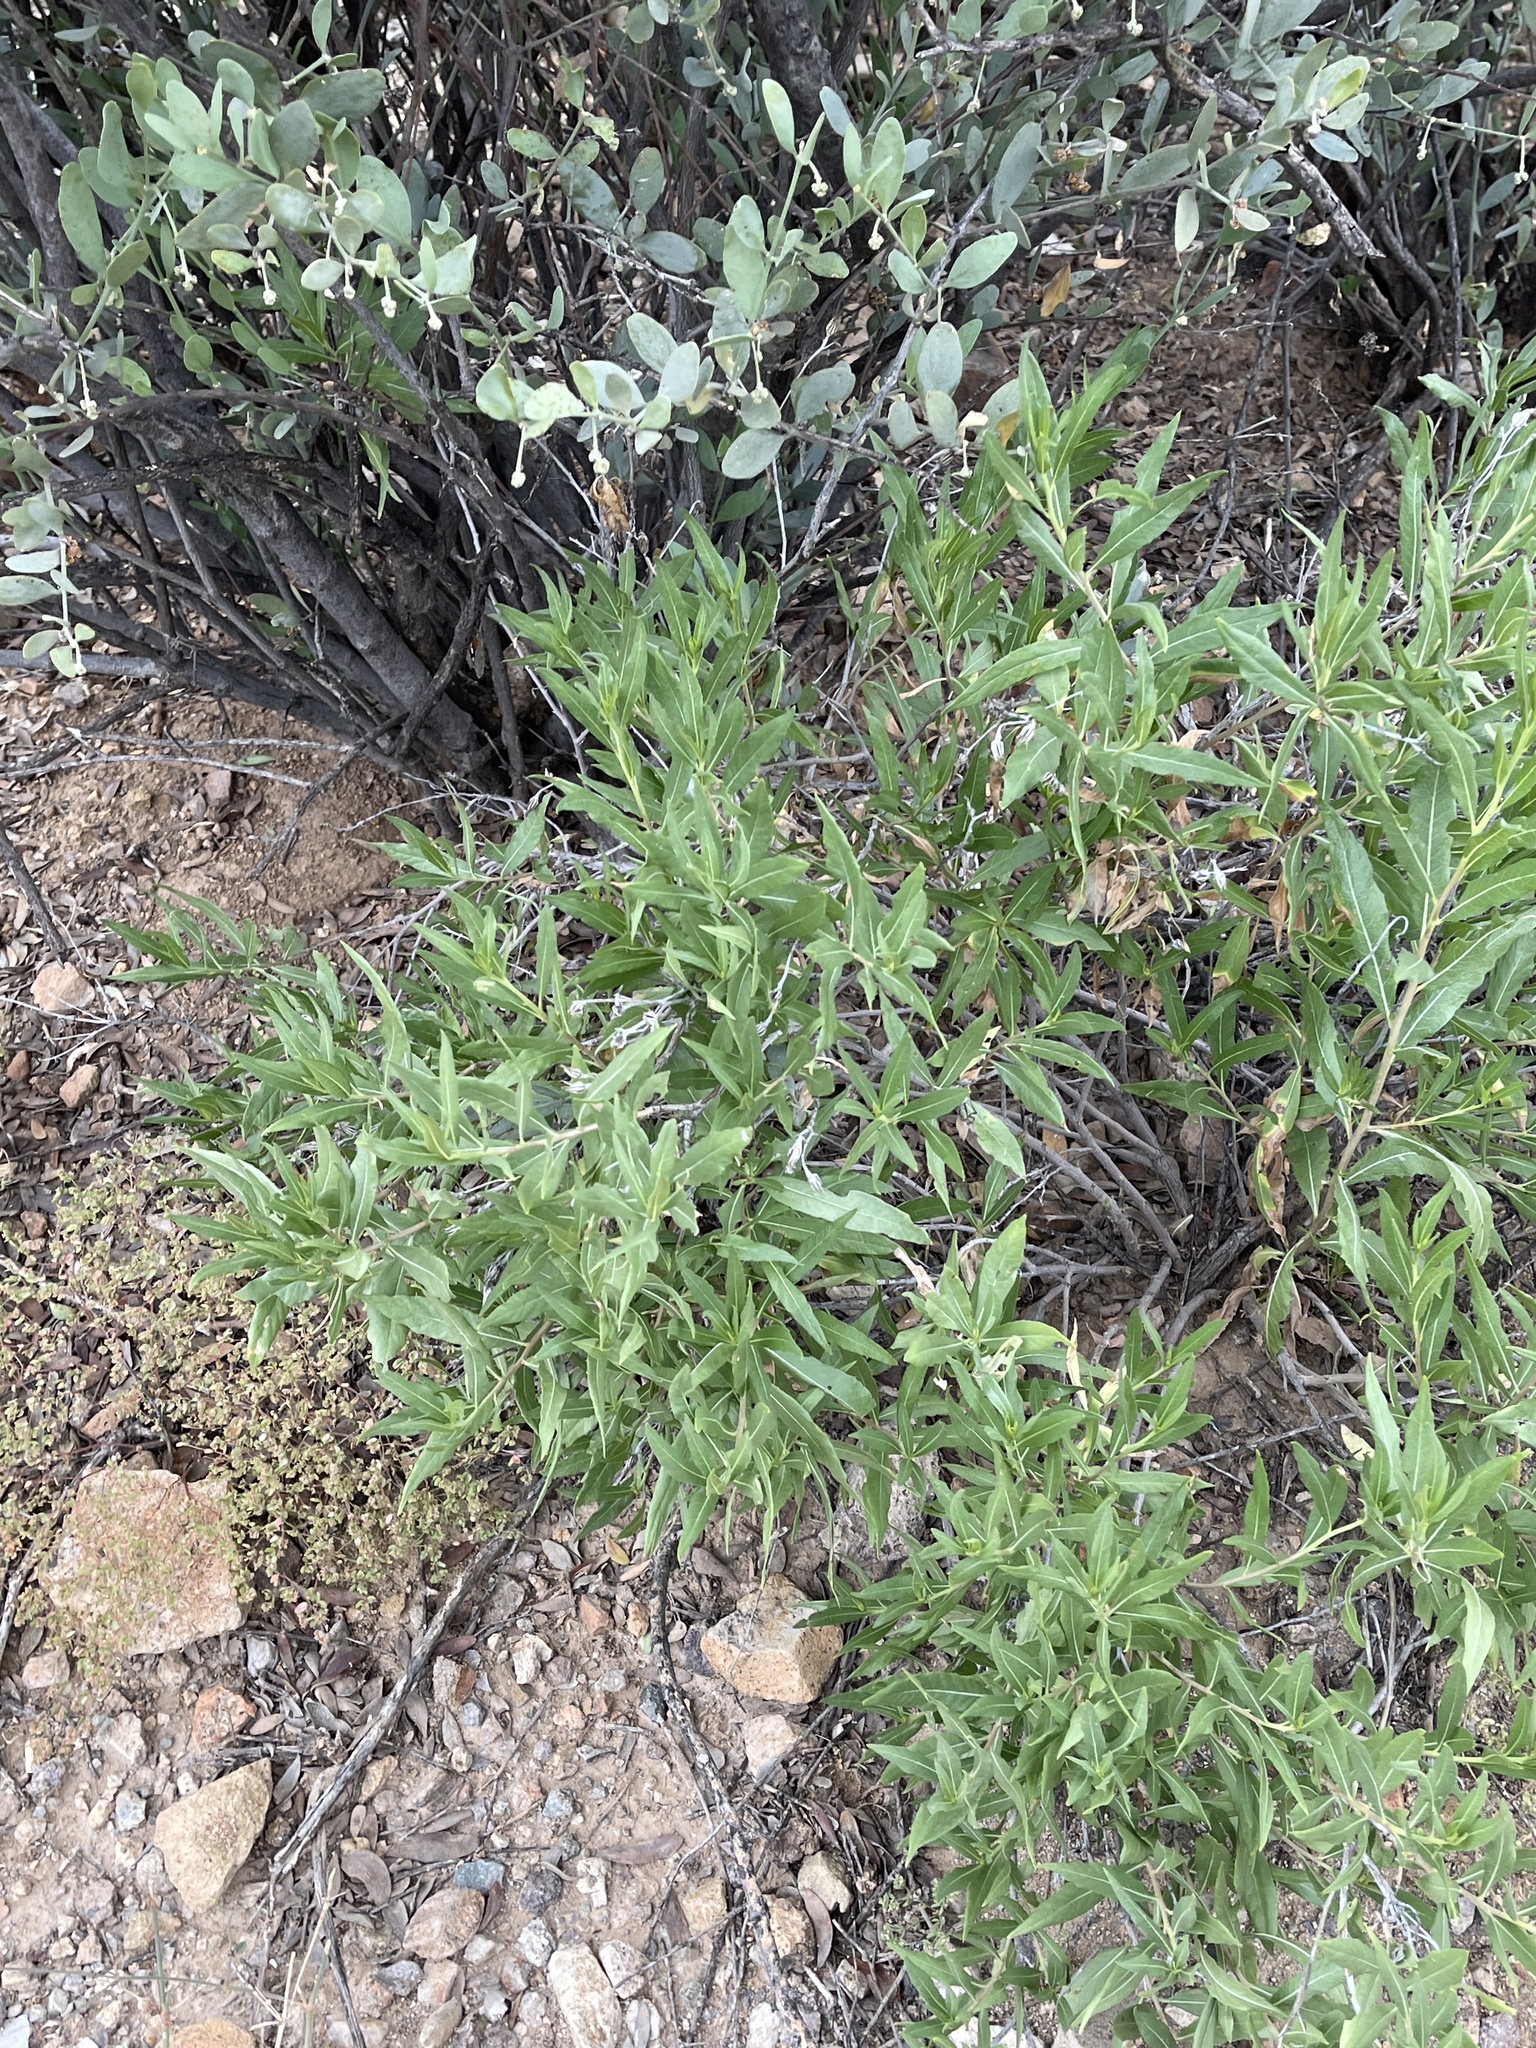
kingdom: Plantae
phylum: Tracheophyta
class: Magnoliopsida
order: Asterales
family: Asteraceae
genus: Trixis
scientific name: Trixis californica
